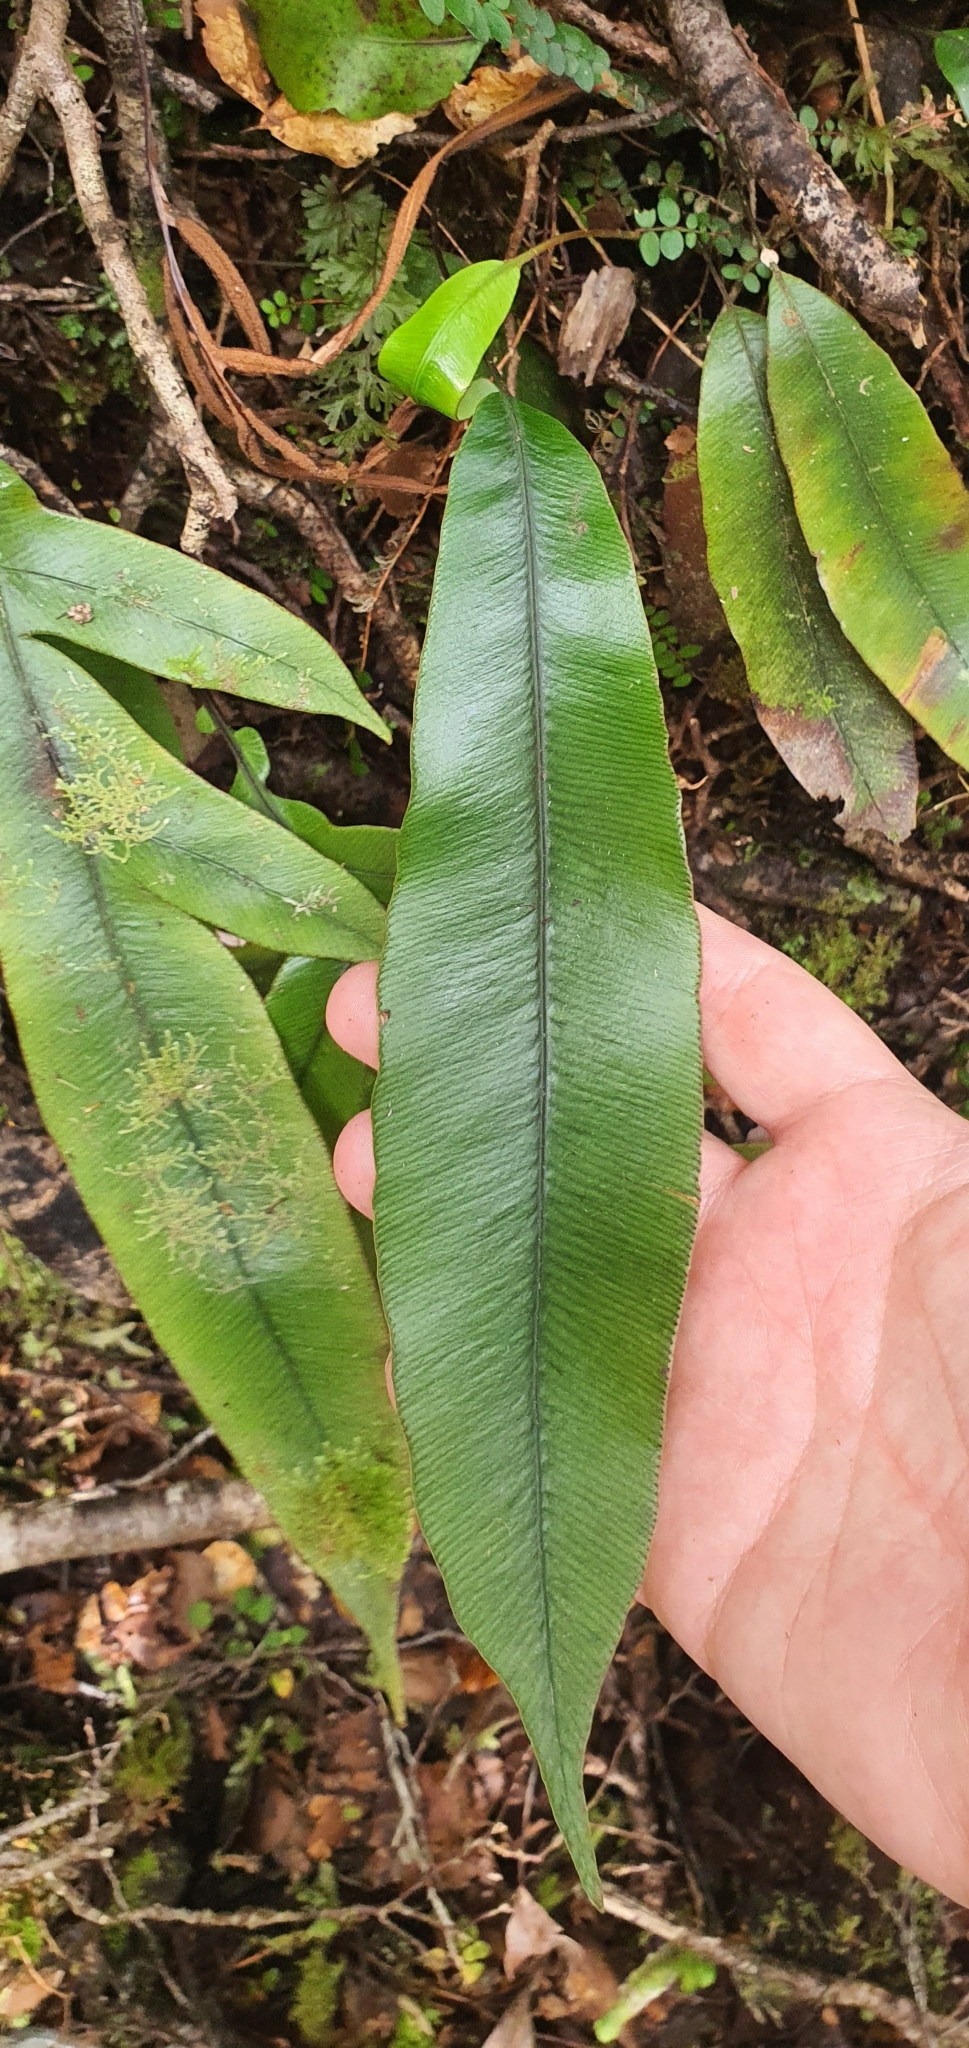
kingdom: Plantae
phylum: Tracheophyta
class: Polypodiopsida
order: Polypodiales
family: Blechnaceae
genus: Austroblechnum
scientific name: Austroblechnum colensoi
